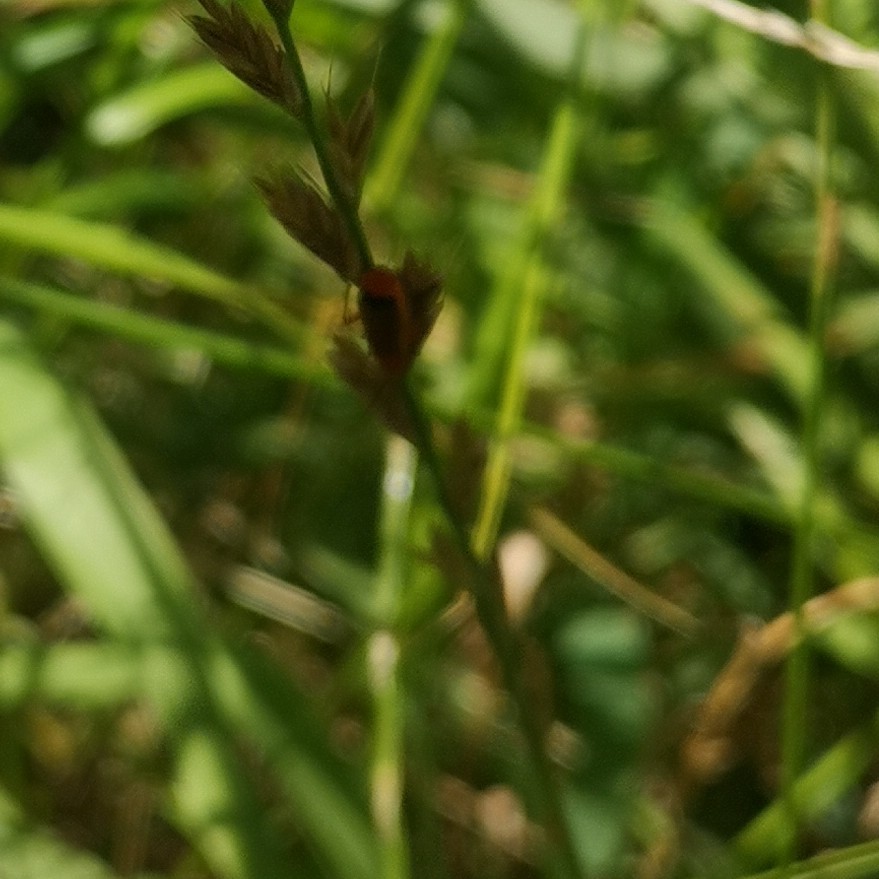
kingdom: Animalia
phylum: Arthropoda
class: Insecta
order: Coleoptera
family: Cantharidae
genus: Rhagonycha
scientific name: Rhagonycha fulva
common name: Common red soldier beetle
